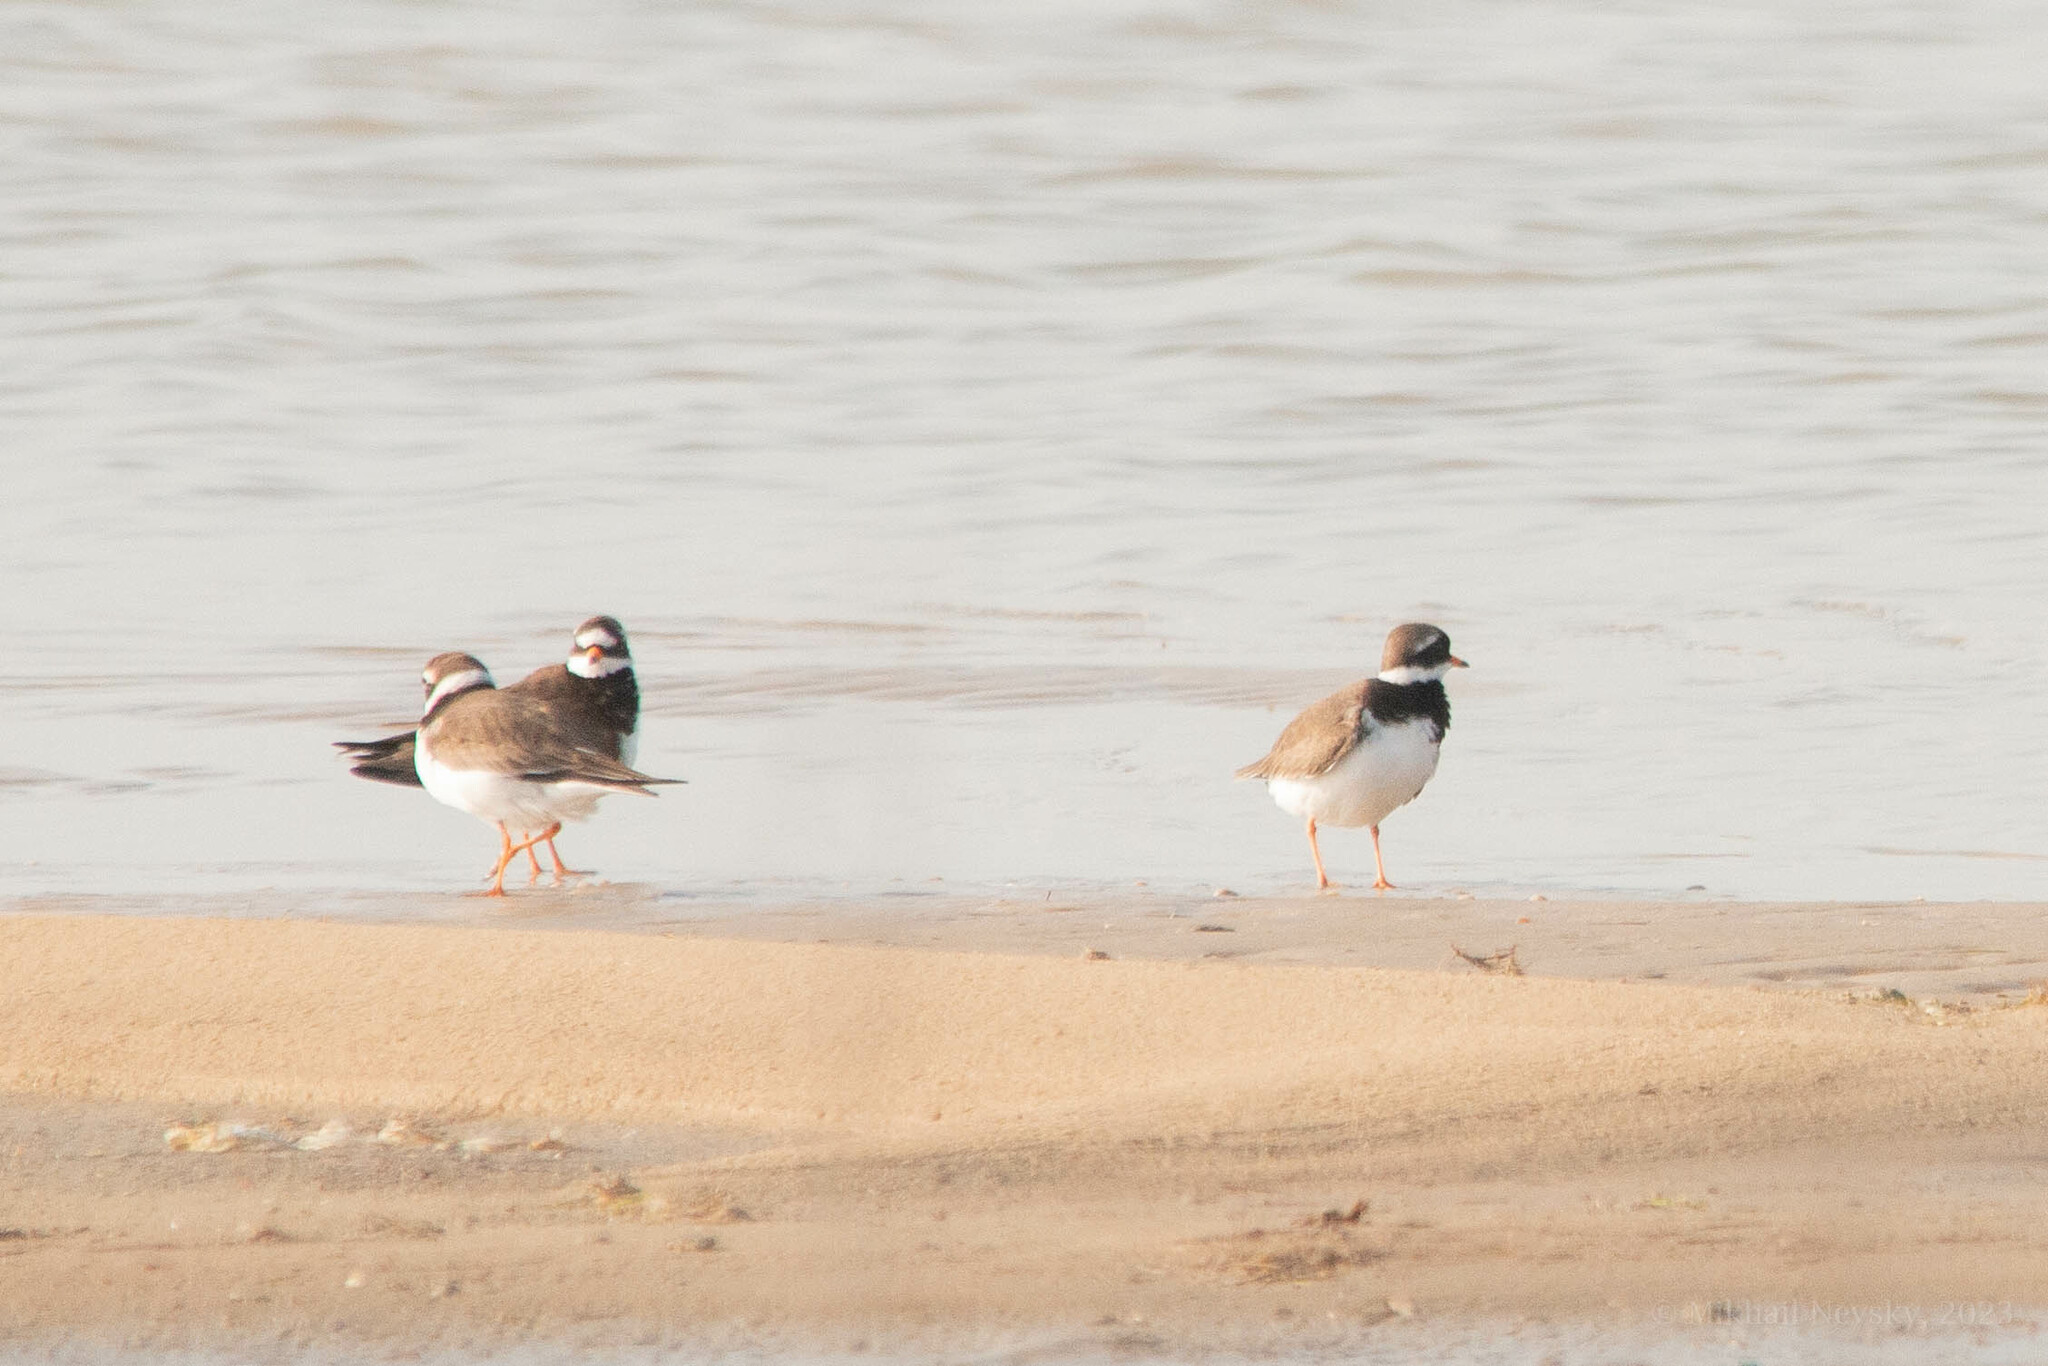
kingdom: Animalia
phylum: Chordata
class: Aves
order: Charadriiformes
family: Charadriidae
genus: Charadrius
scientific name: Charadrius hiaticula
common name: Common ringed plover
